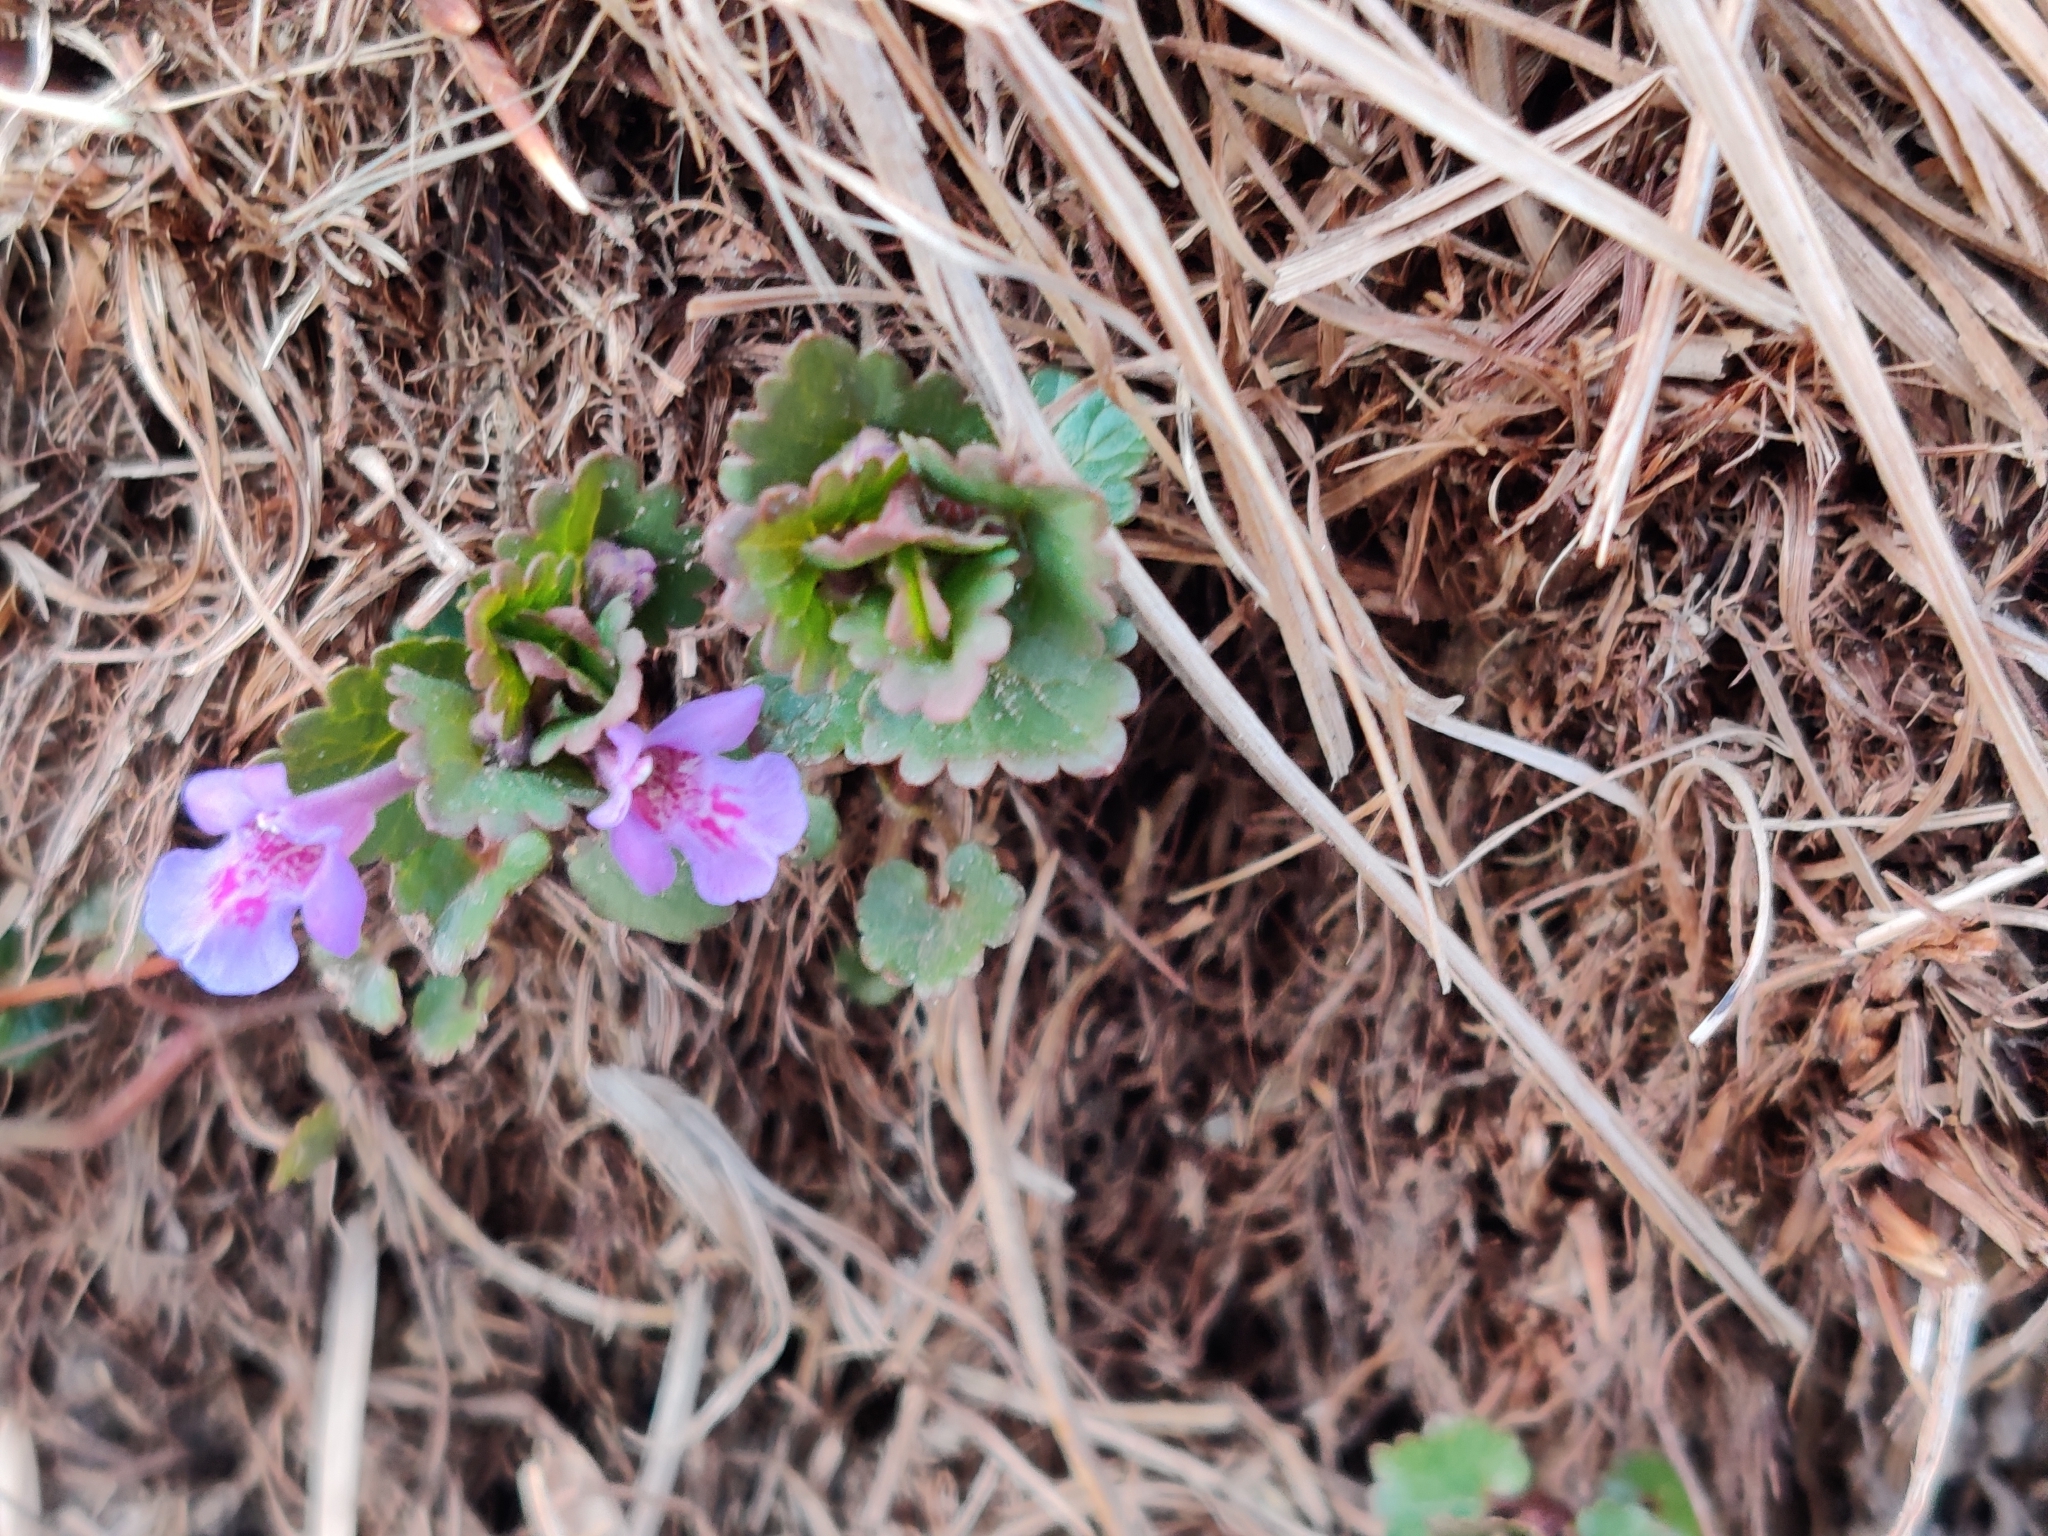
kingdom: Plantae
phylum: Tracheophyta
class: Magnoliopsida
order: Lamiales
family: Lamiaceae
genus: Glechoma
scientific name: Glechoma hederacea
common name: Ground ivy
